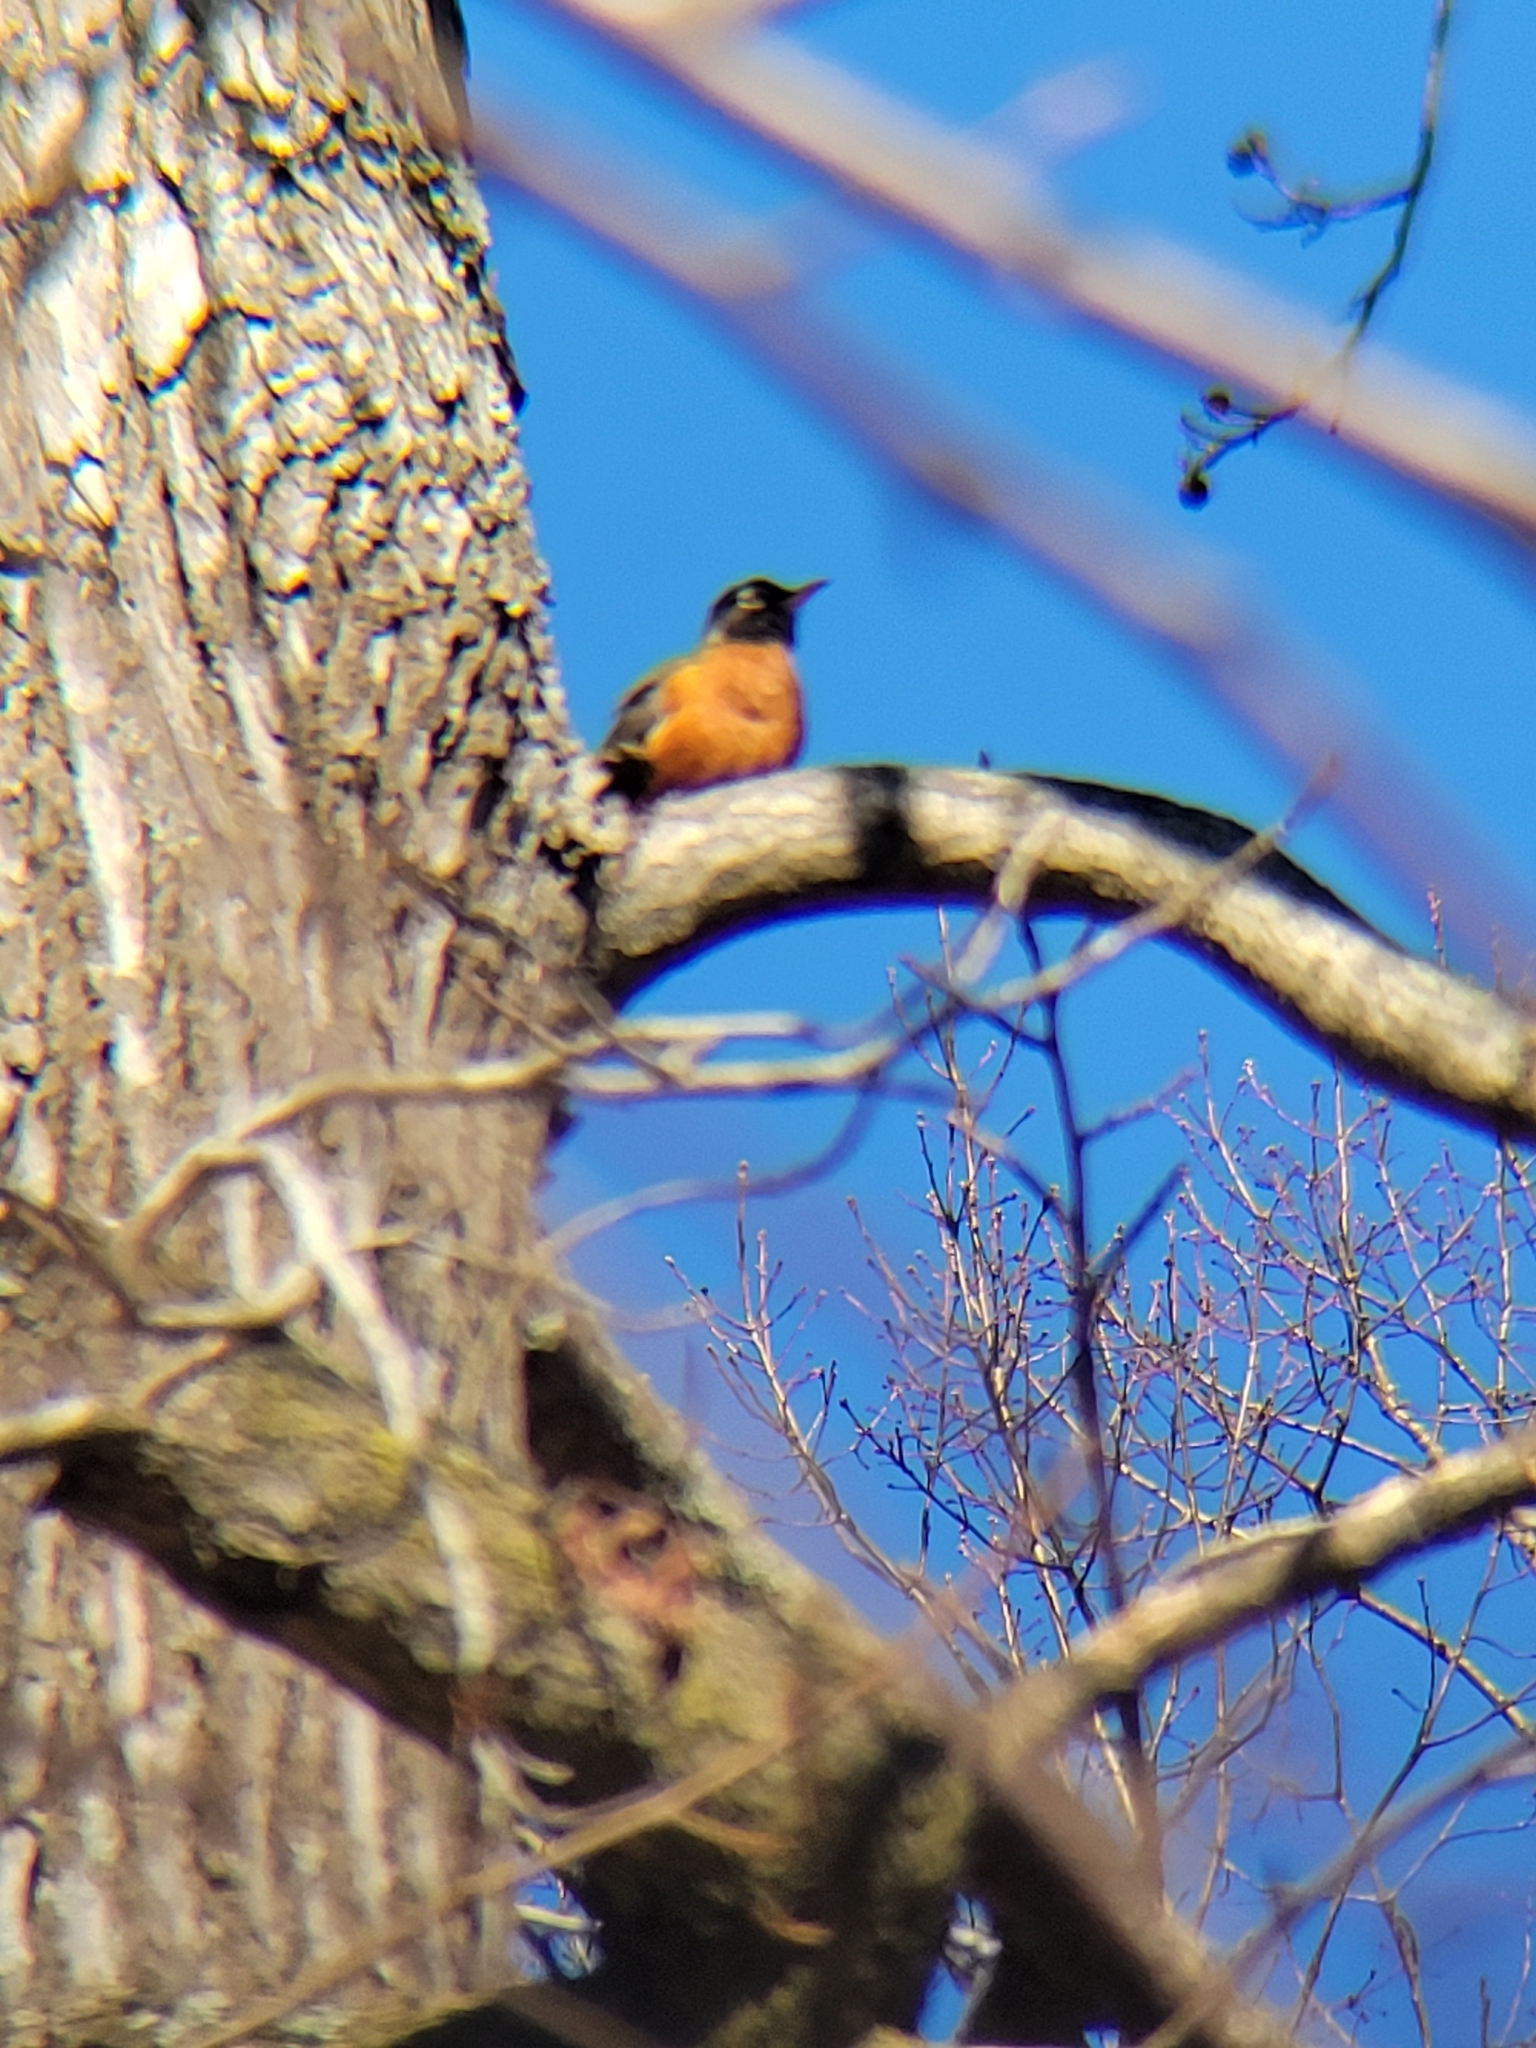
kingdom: Animalia
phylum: Chordata
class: Aves
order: Passeriformes
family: Turdidae
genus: Turdus
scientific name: Turdus migratorius
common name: American robin
